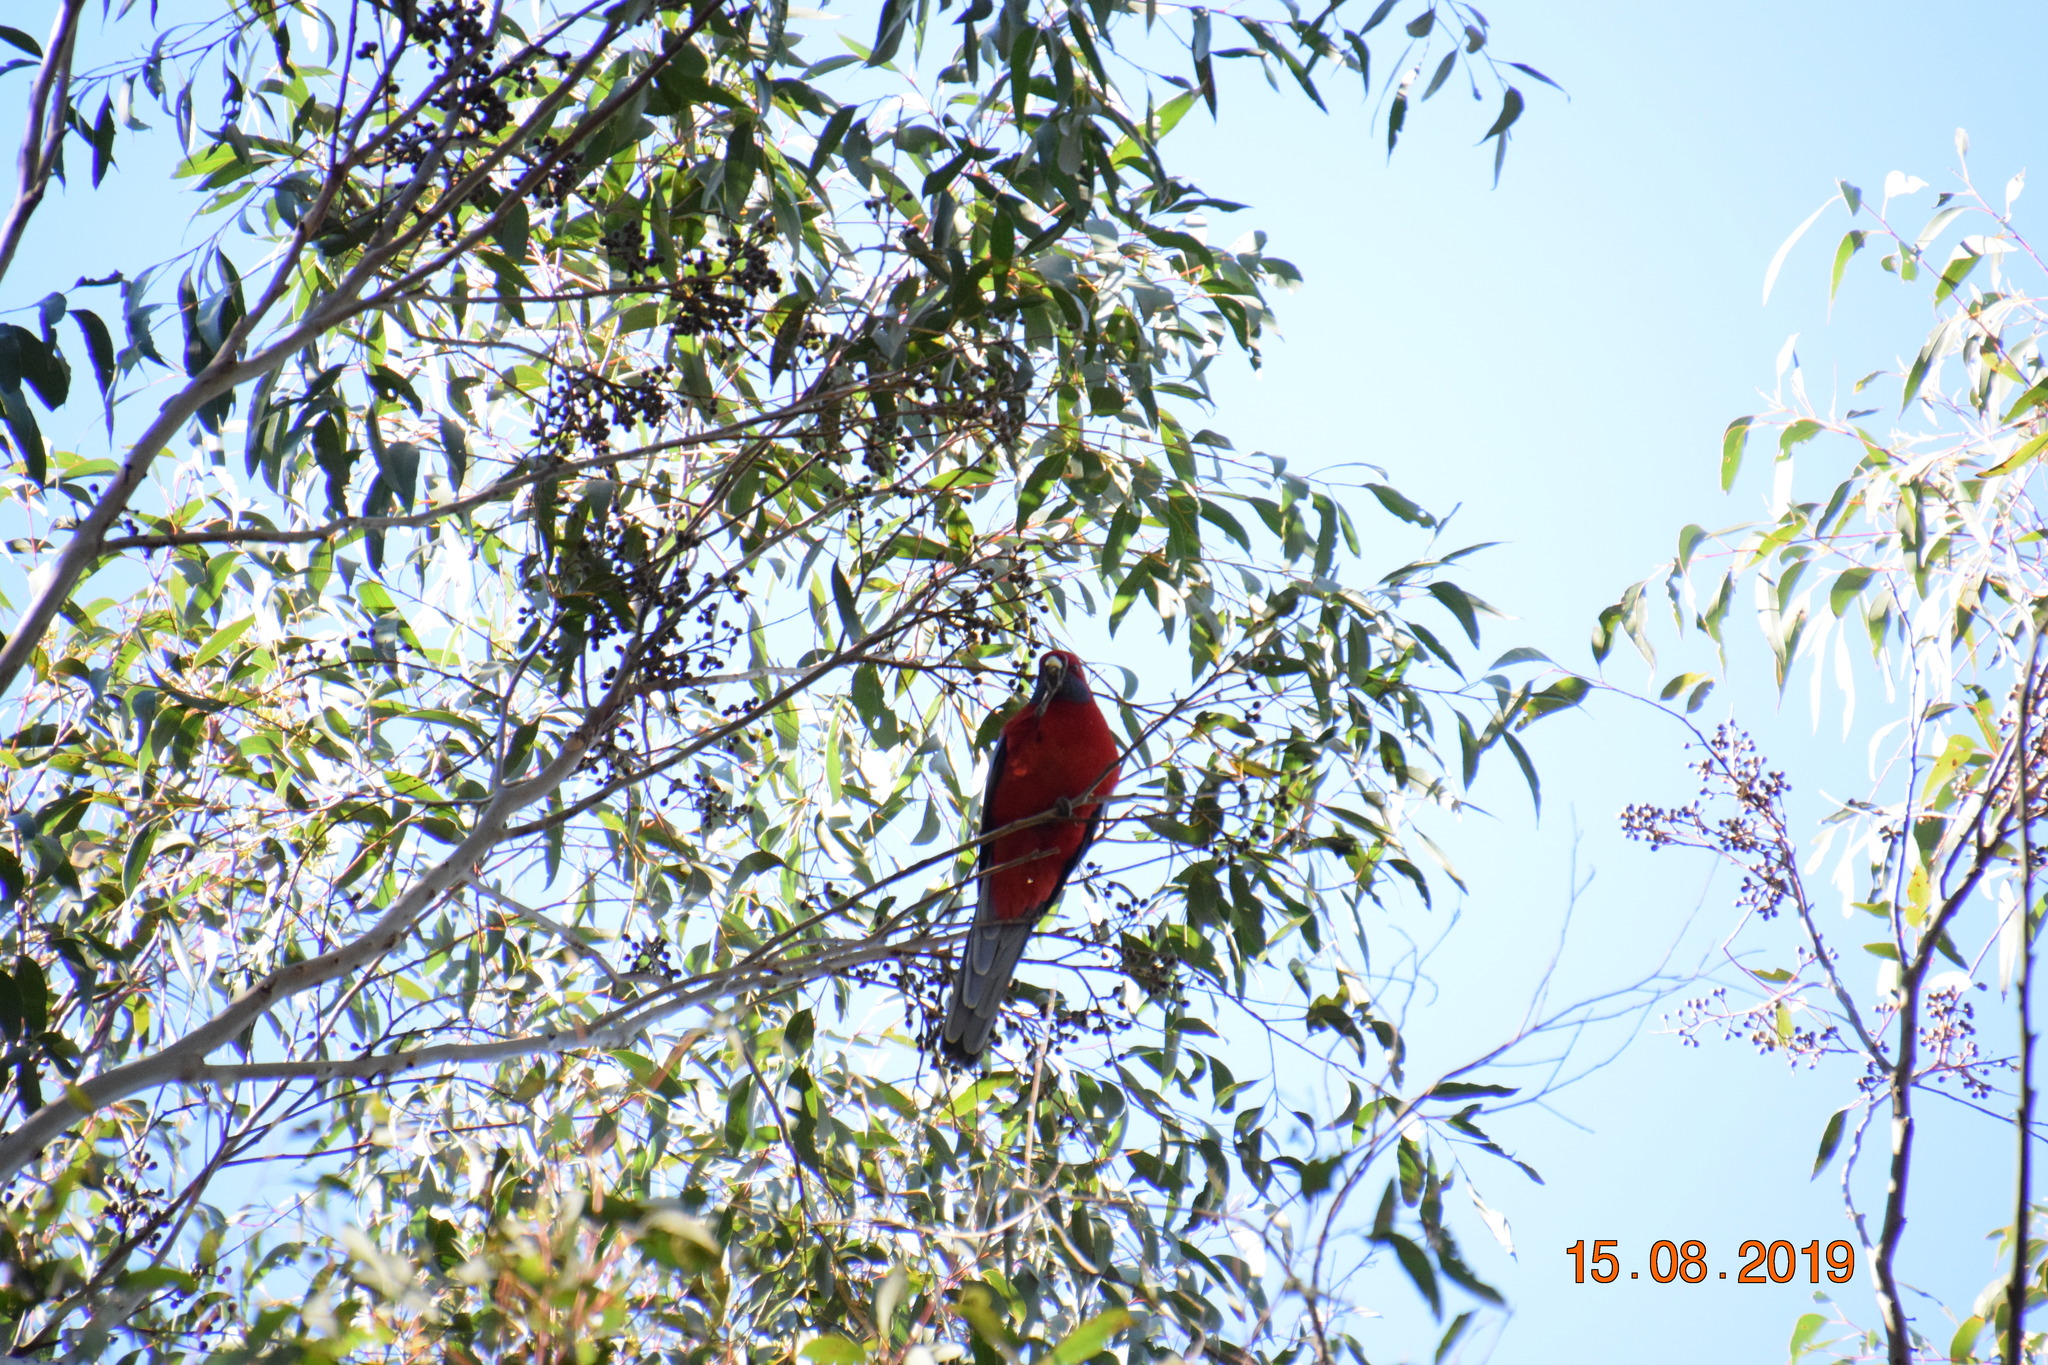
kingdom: Animalia
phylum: Chordata
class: Aves
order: Psittaciformes
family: Psittacidae
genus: Platycercus
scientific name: Platycercus elegans
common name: Crimson rosella
